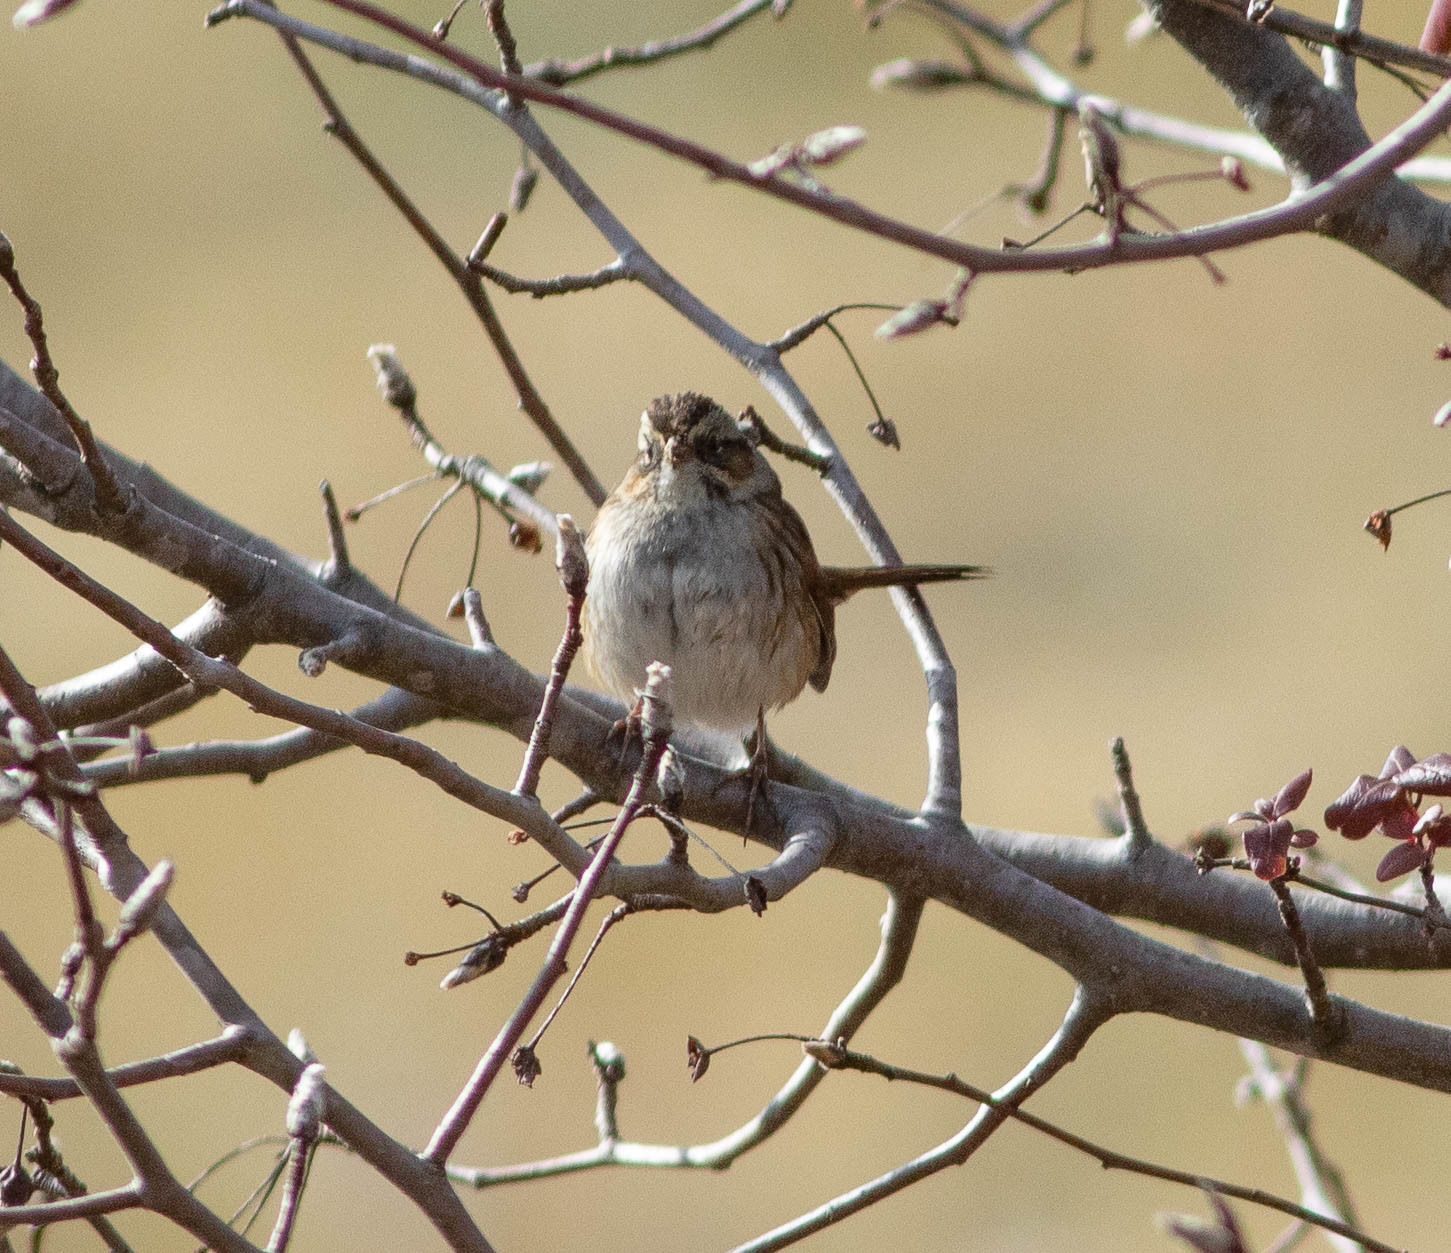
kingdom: Animalia
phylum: Chordata
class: Aves
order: Passeriformes
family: Passerellidae
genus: Melospiza
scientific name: Melospiza georgiana
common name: Swamp sparrow
